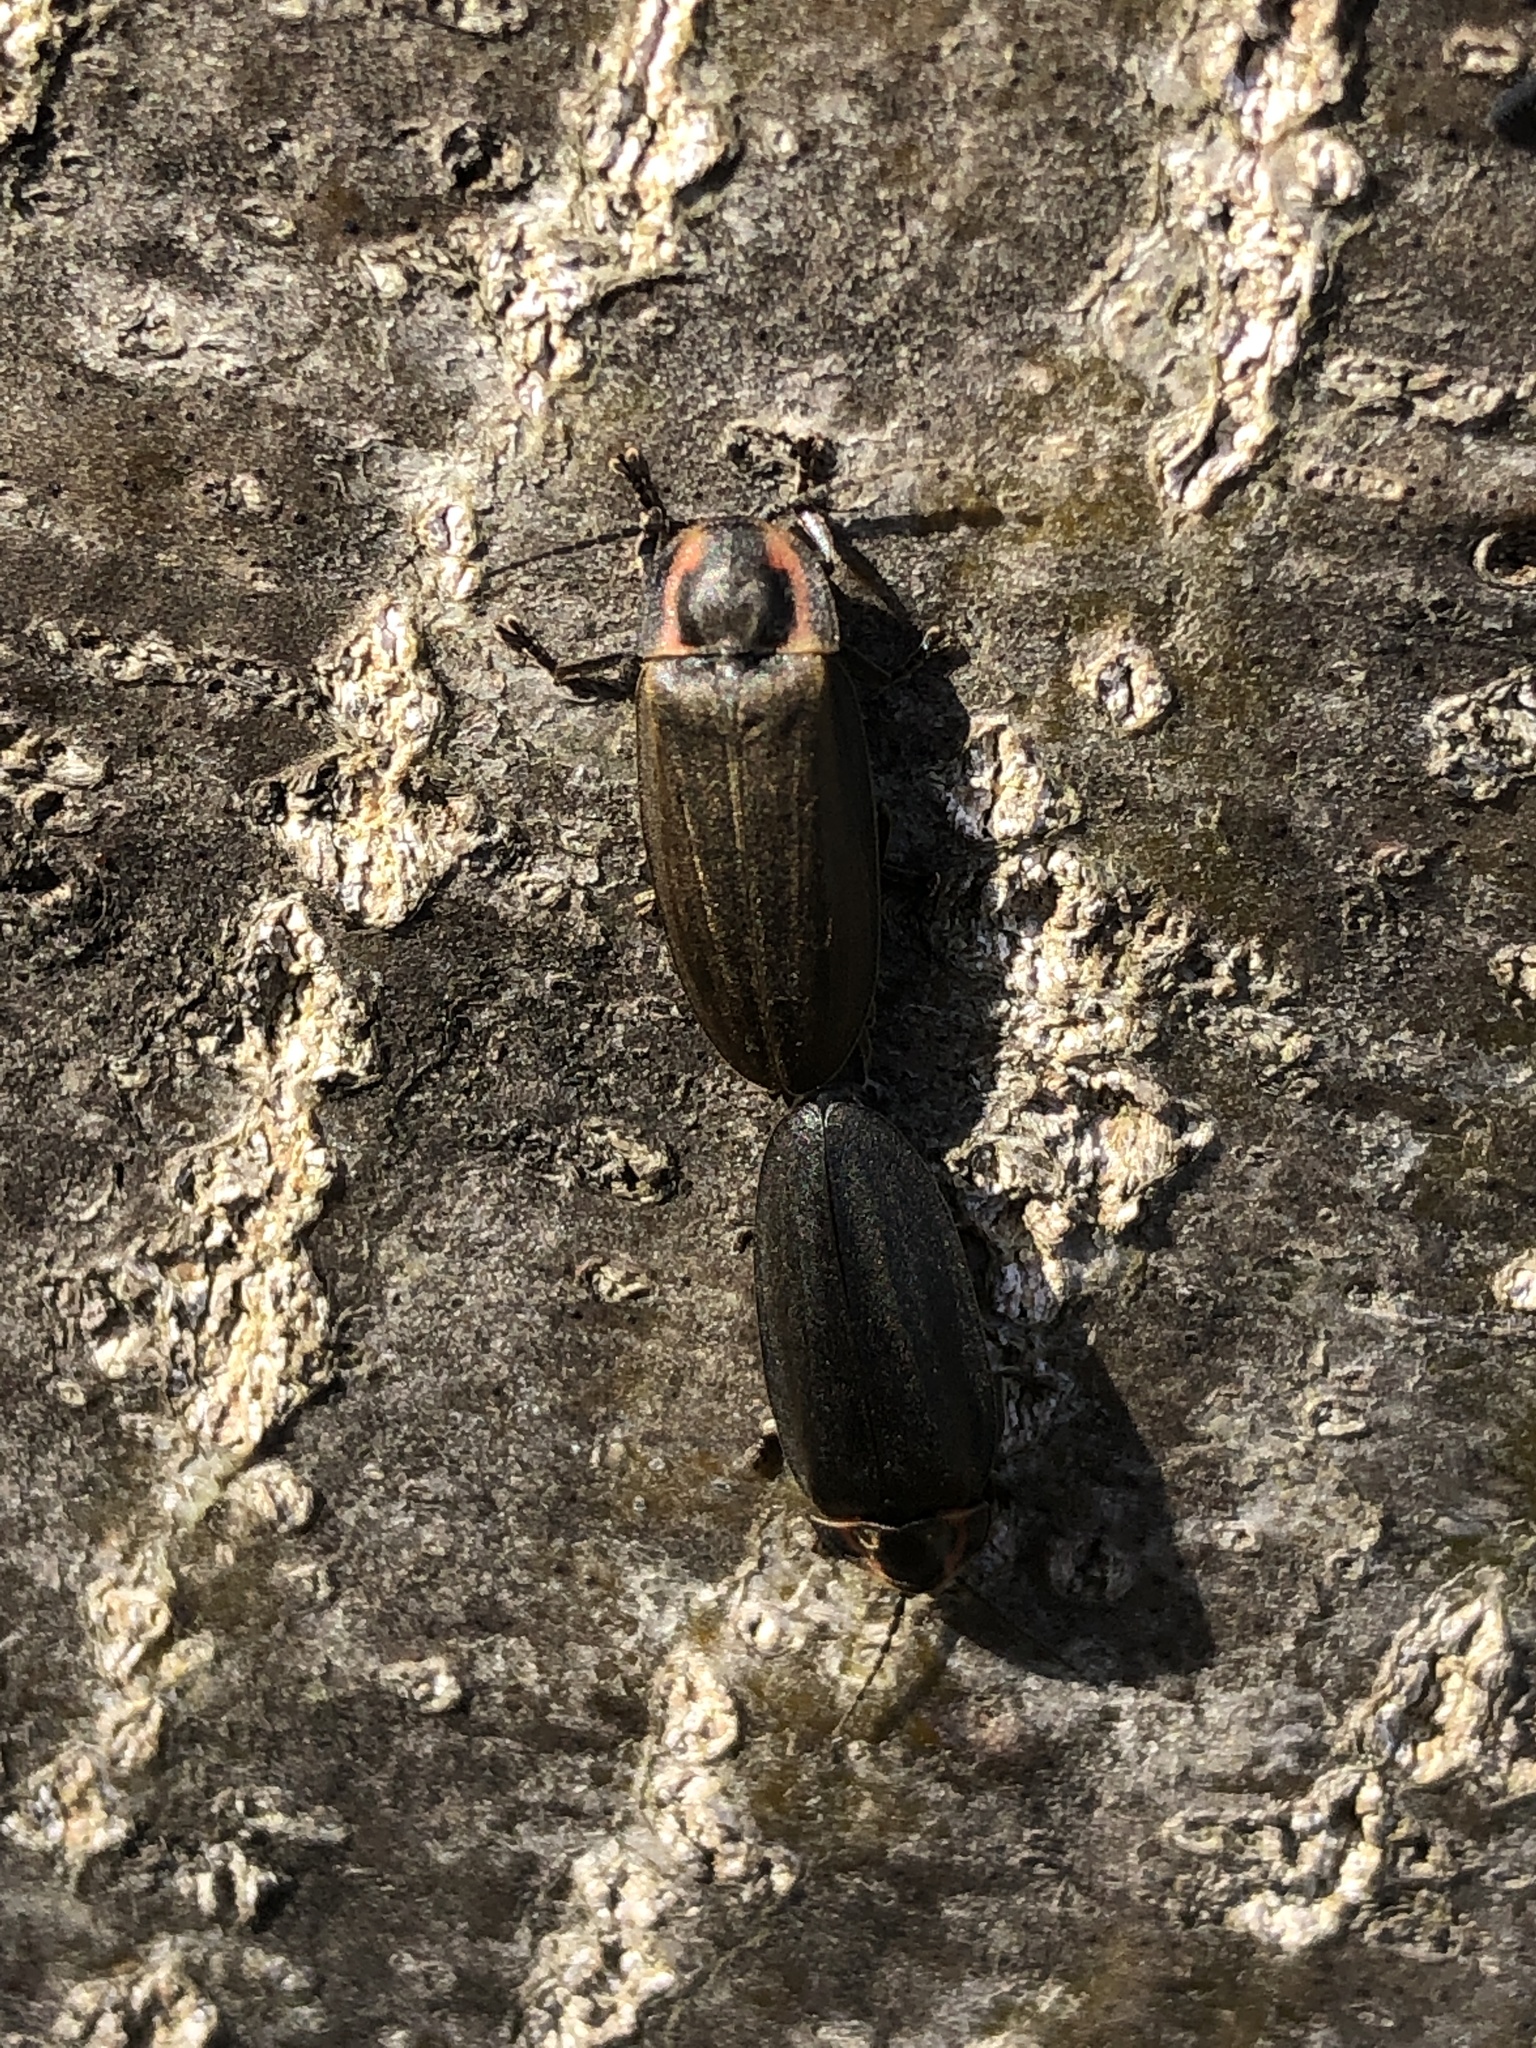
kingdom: Animalia
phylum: Arthropoda
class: Insecta
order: Coleoptera
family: Lampyridae
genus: Photinus
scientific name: Photinus corrusca
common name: Winter firefly
